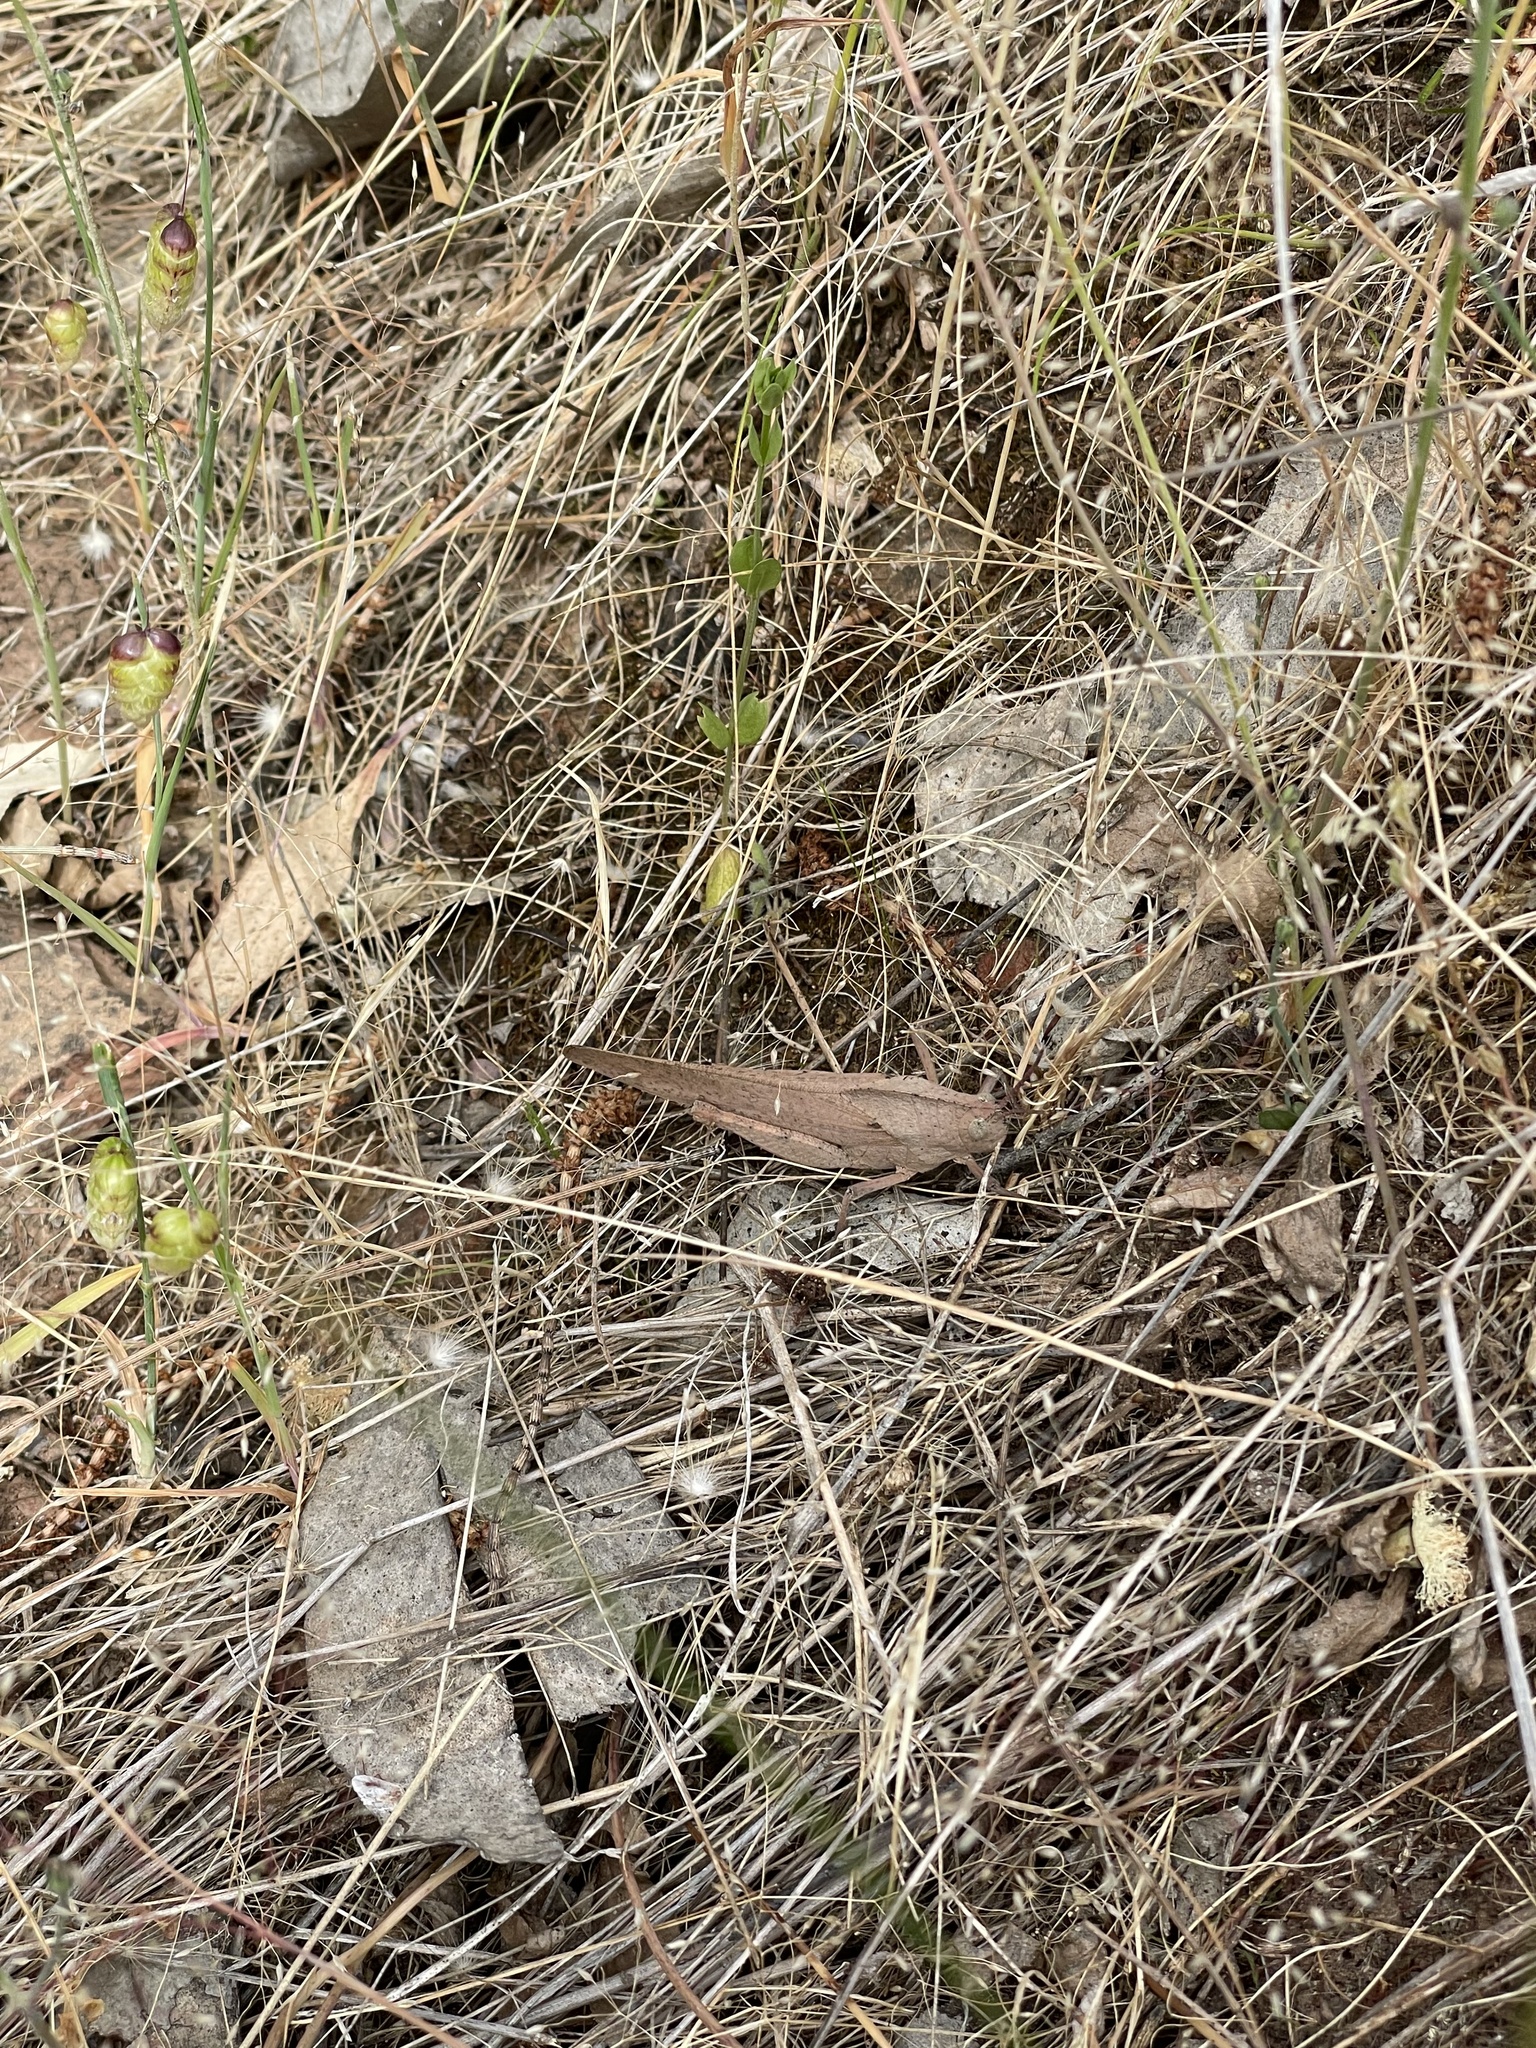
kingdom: Animalia
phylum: Arthropoda
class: Insecta
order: Orthoptera
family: Acrididae
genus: Goniaea
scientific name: Goniaea australasiae
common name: Gumleaf grasshopper
